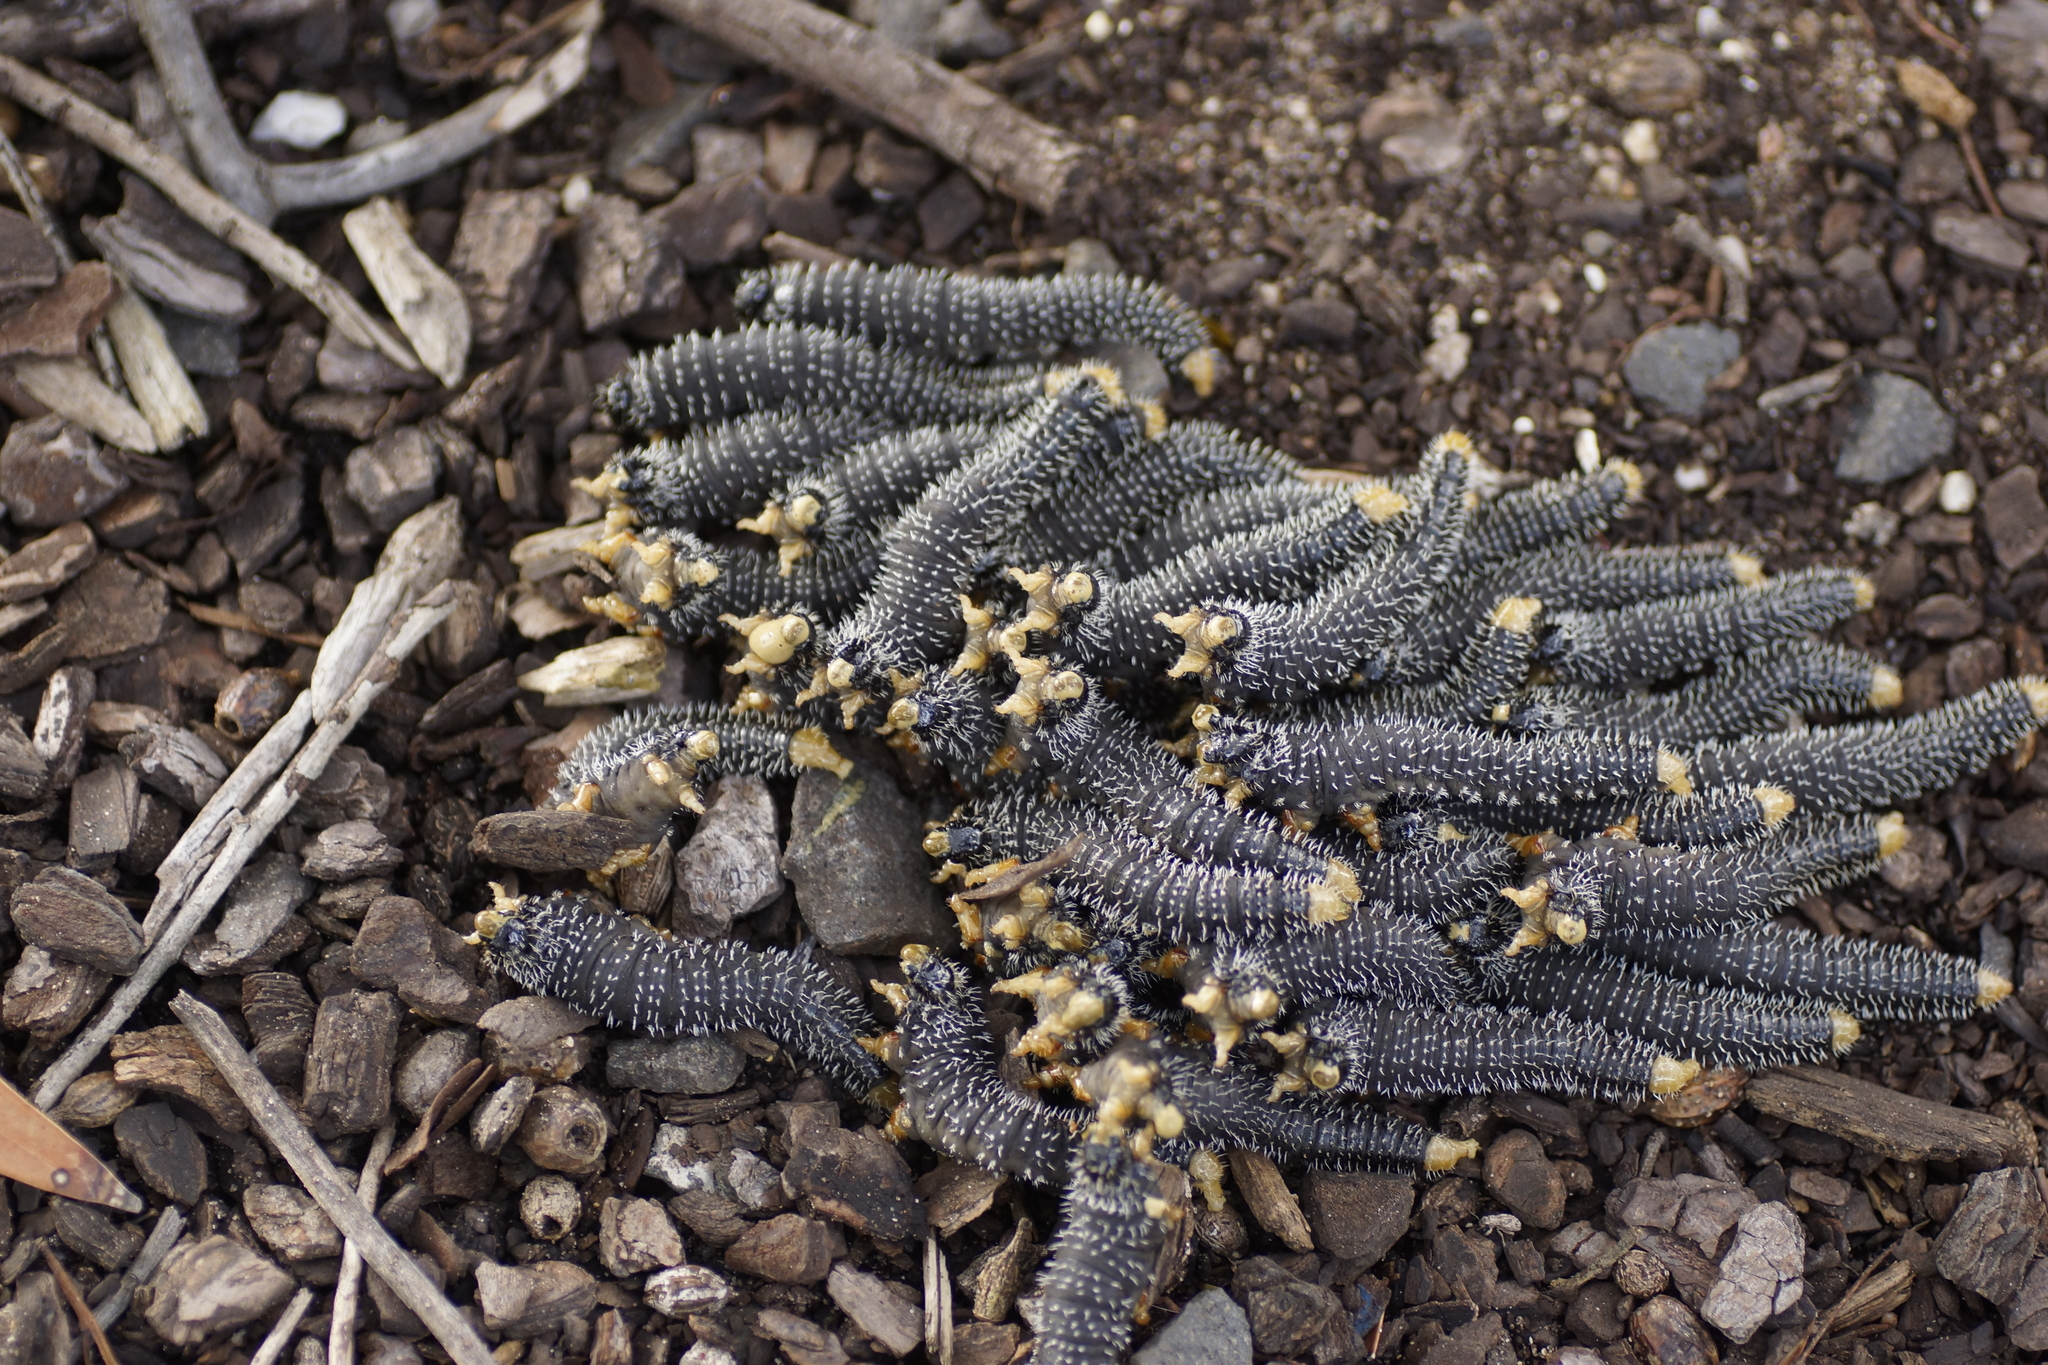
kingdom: Animalia
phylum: Arthropoda
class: Insecta
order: Hymenoptera
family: Pergidae
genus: Perga
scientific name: Perga affinis
